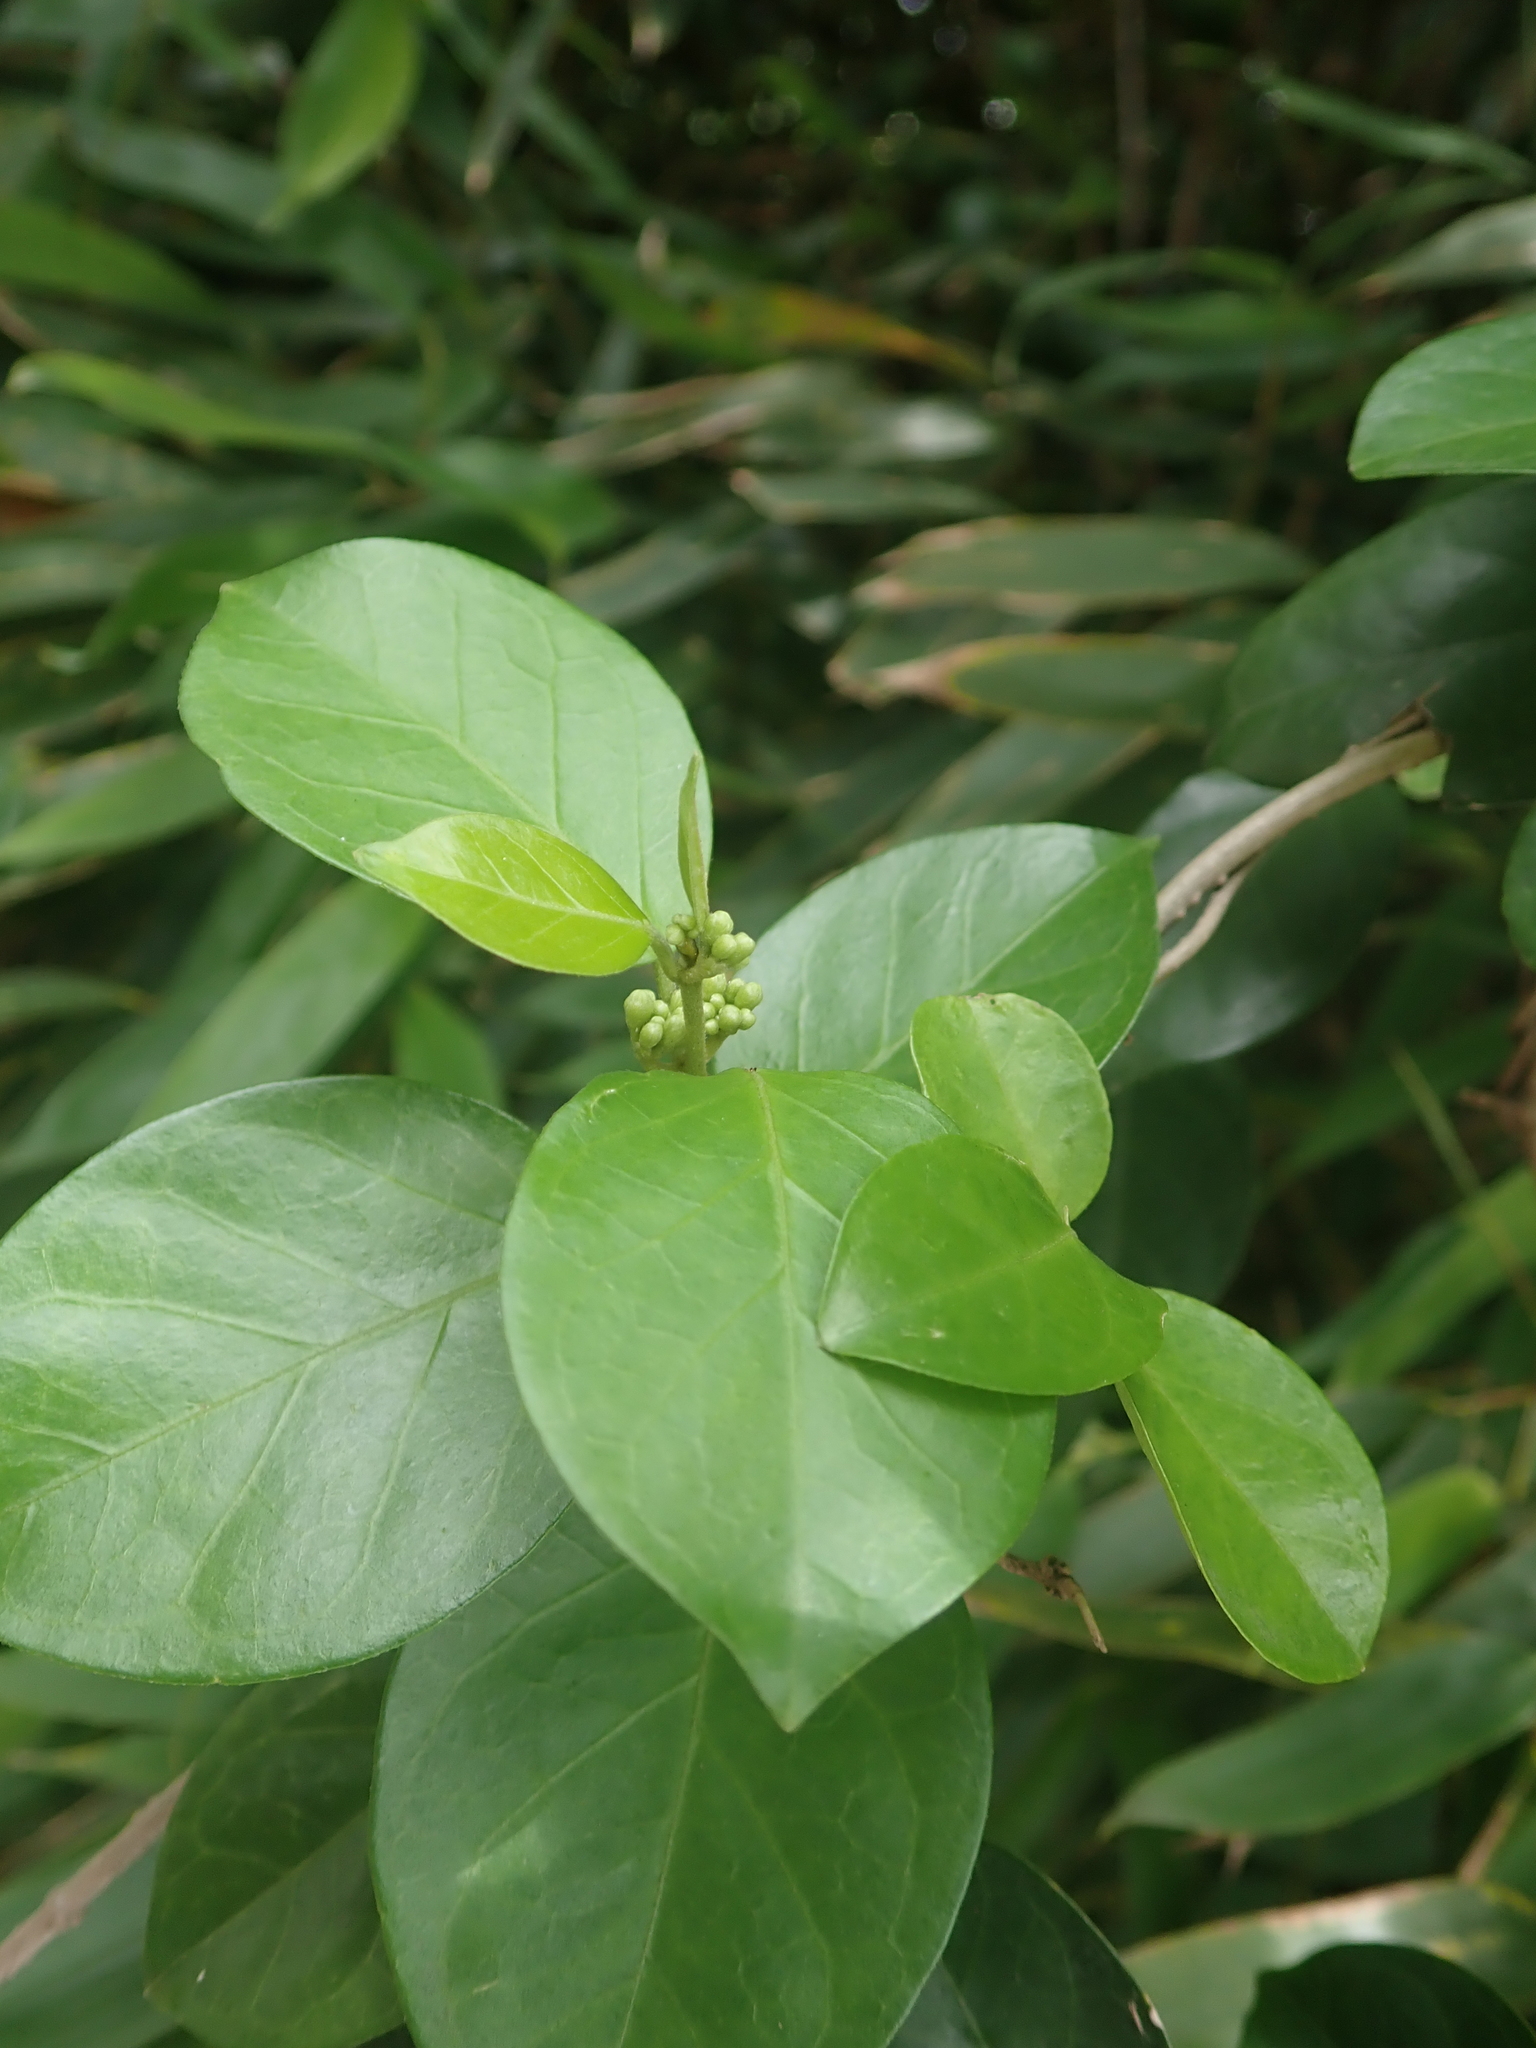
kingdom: Plantae
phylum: Tracheophyta
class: Magnoliopsida
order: Gentianales
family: Apocynaceae
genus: Gymnema
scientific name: Gymnema sylvestre
